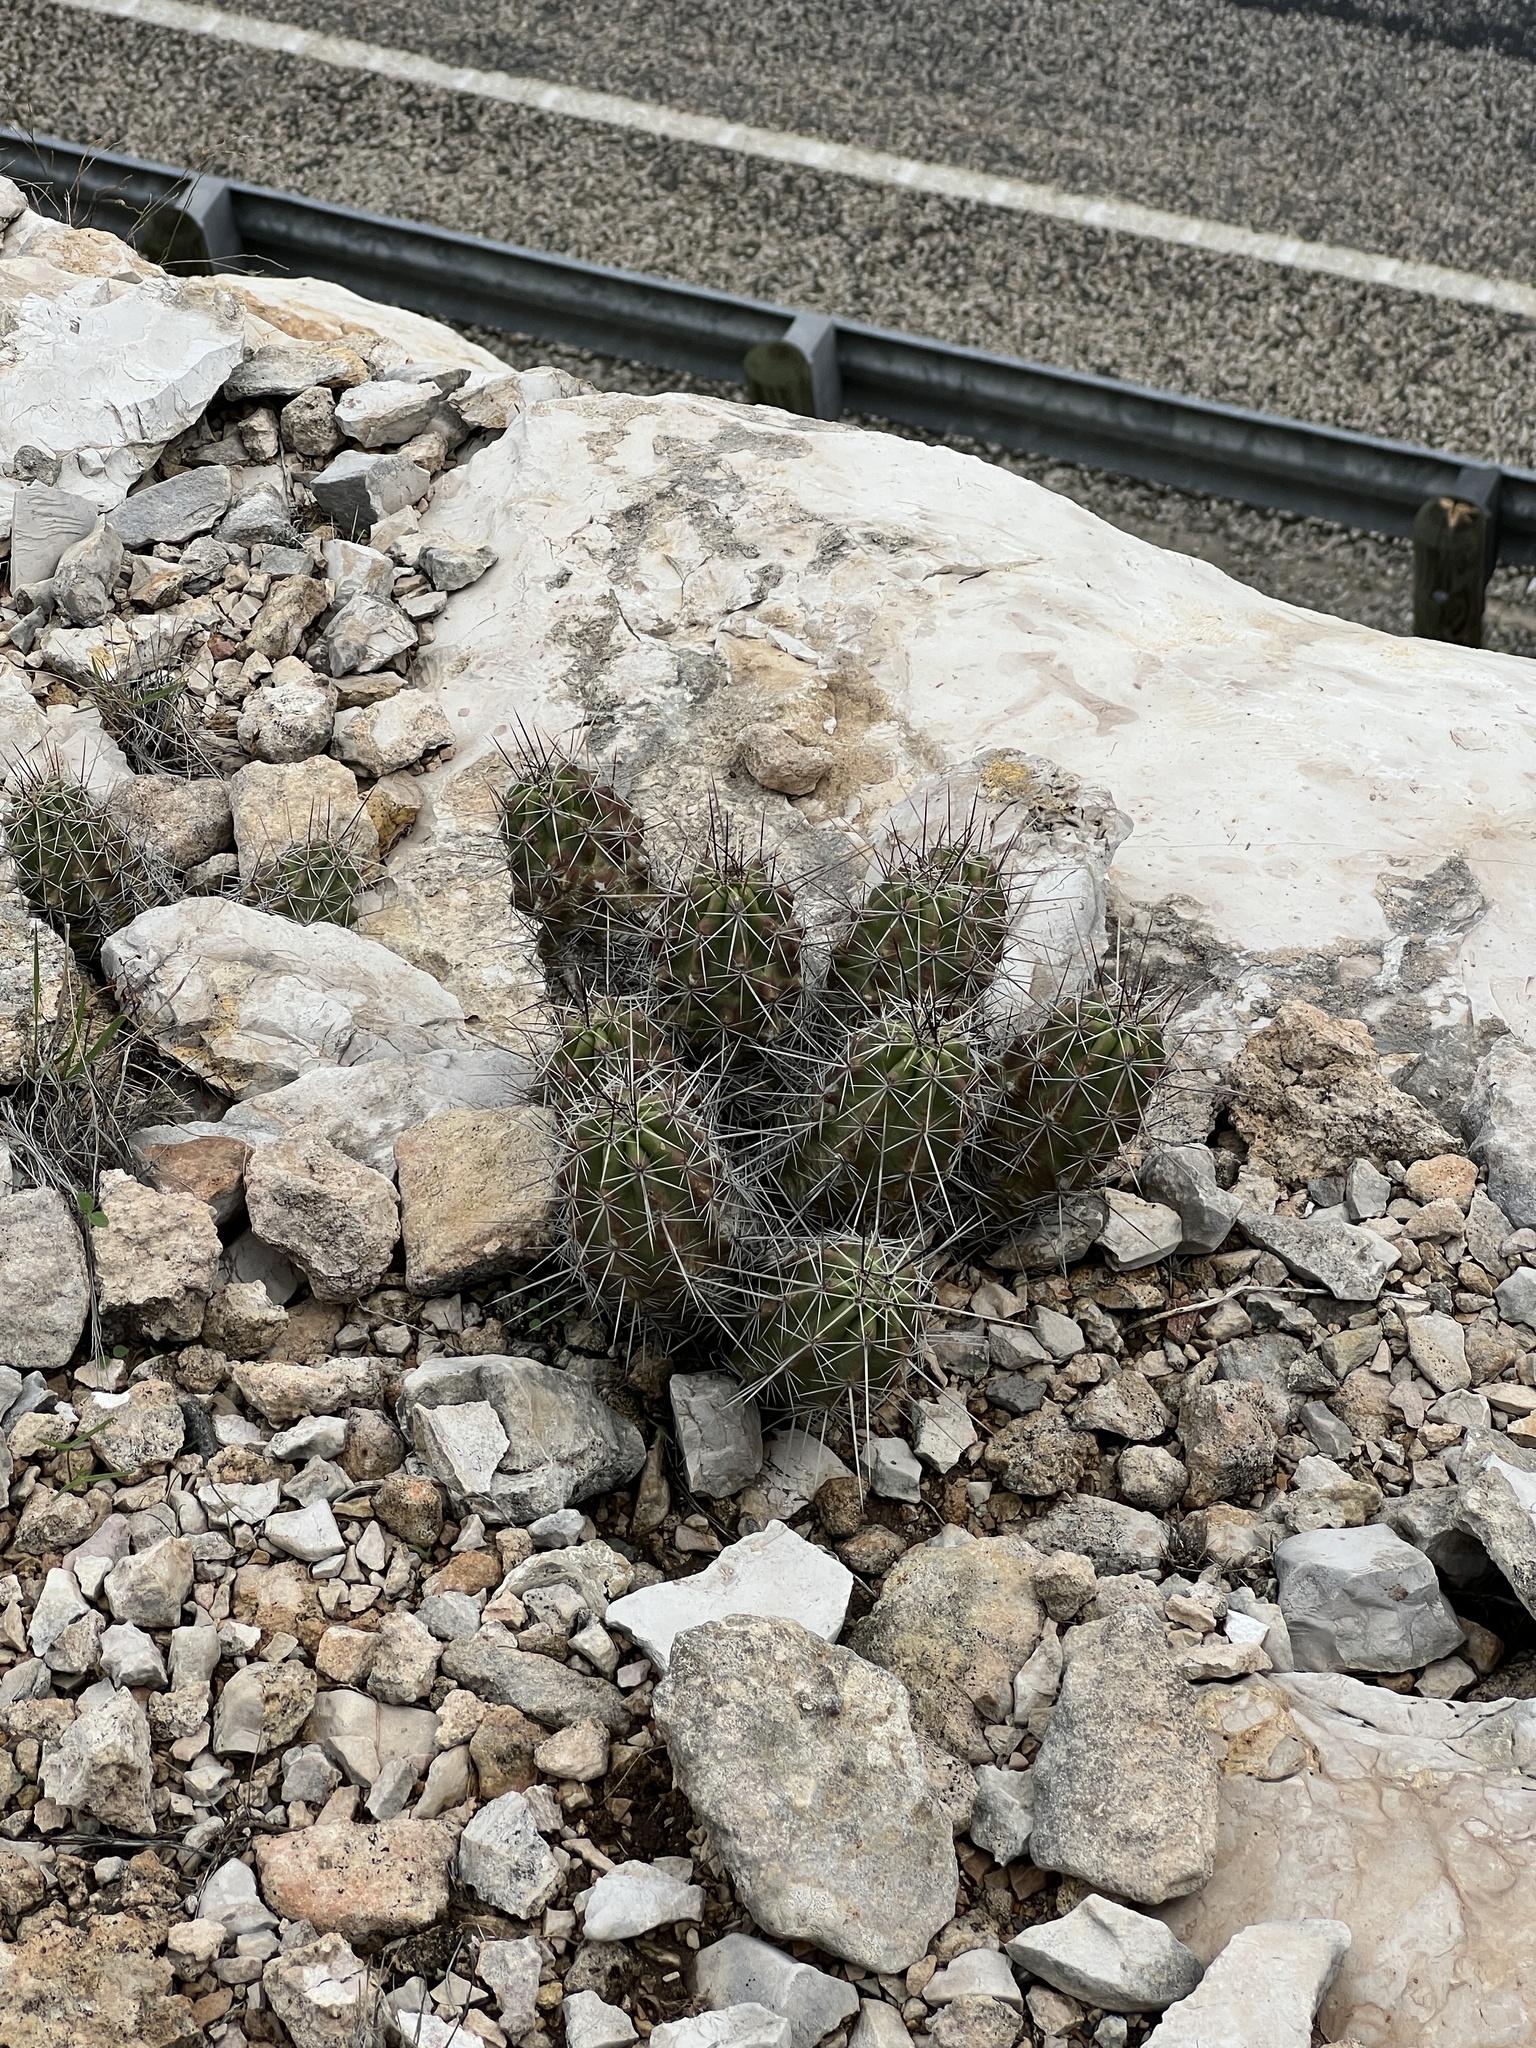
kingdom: Plantae
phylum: Tracheophyta
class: Magnoliopsida
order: Caryophyllales
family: Cactaceae
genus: Echinocereus
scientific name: Echinocereus enneacanthus
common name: Pitaya
